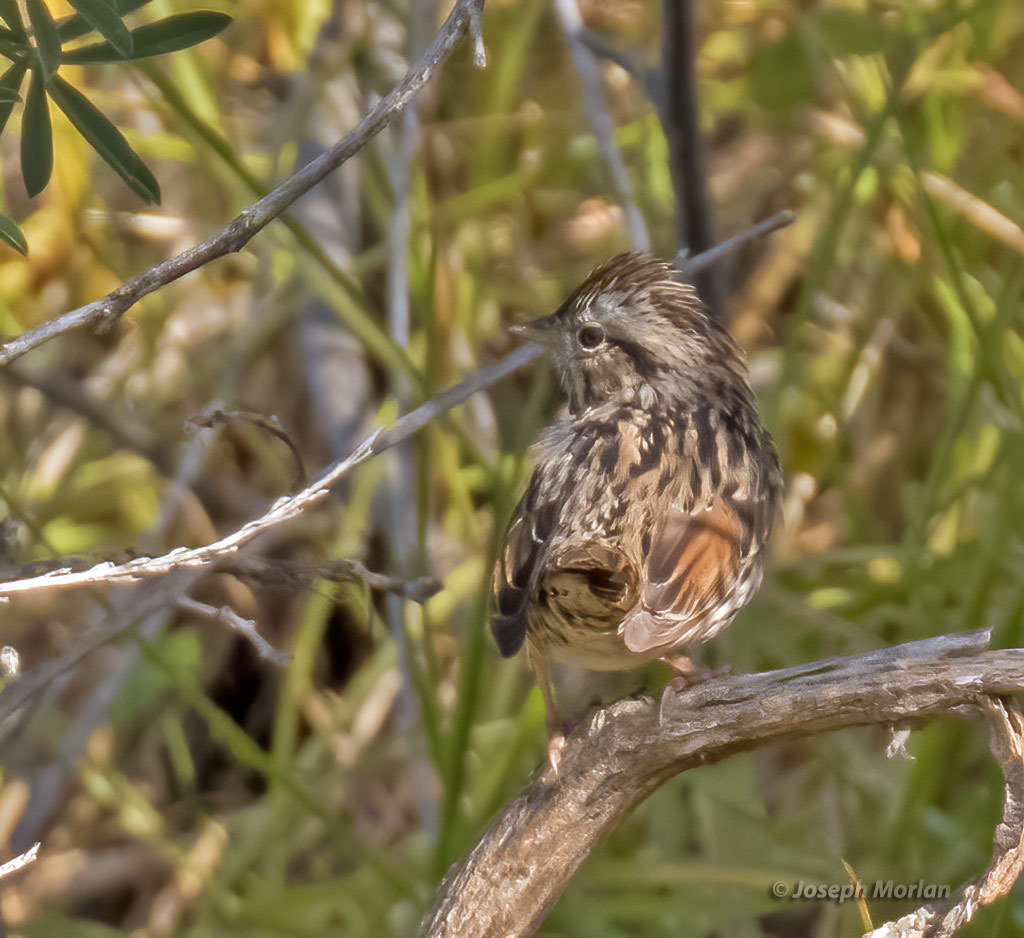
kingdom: Animalia
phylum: Chordata
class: Aves
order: Passeriformes
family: Passerellidae
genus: Melospiza
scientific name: Melospiza lincolnii
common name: Lincoln's sparrow
